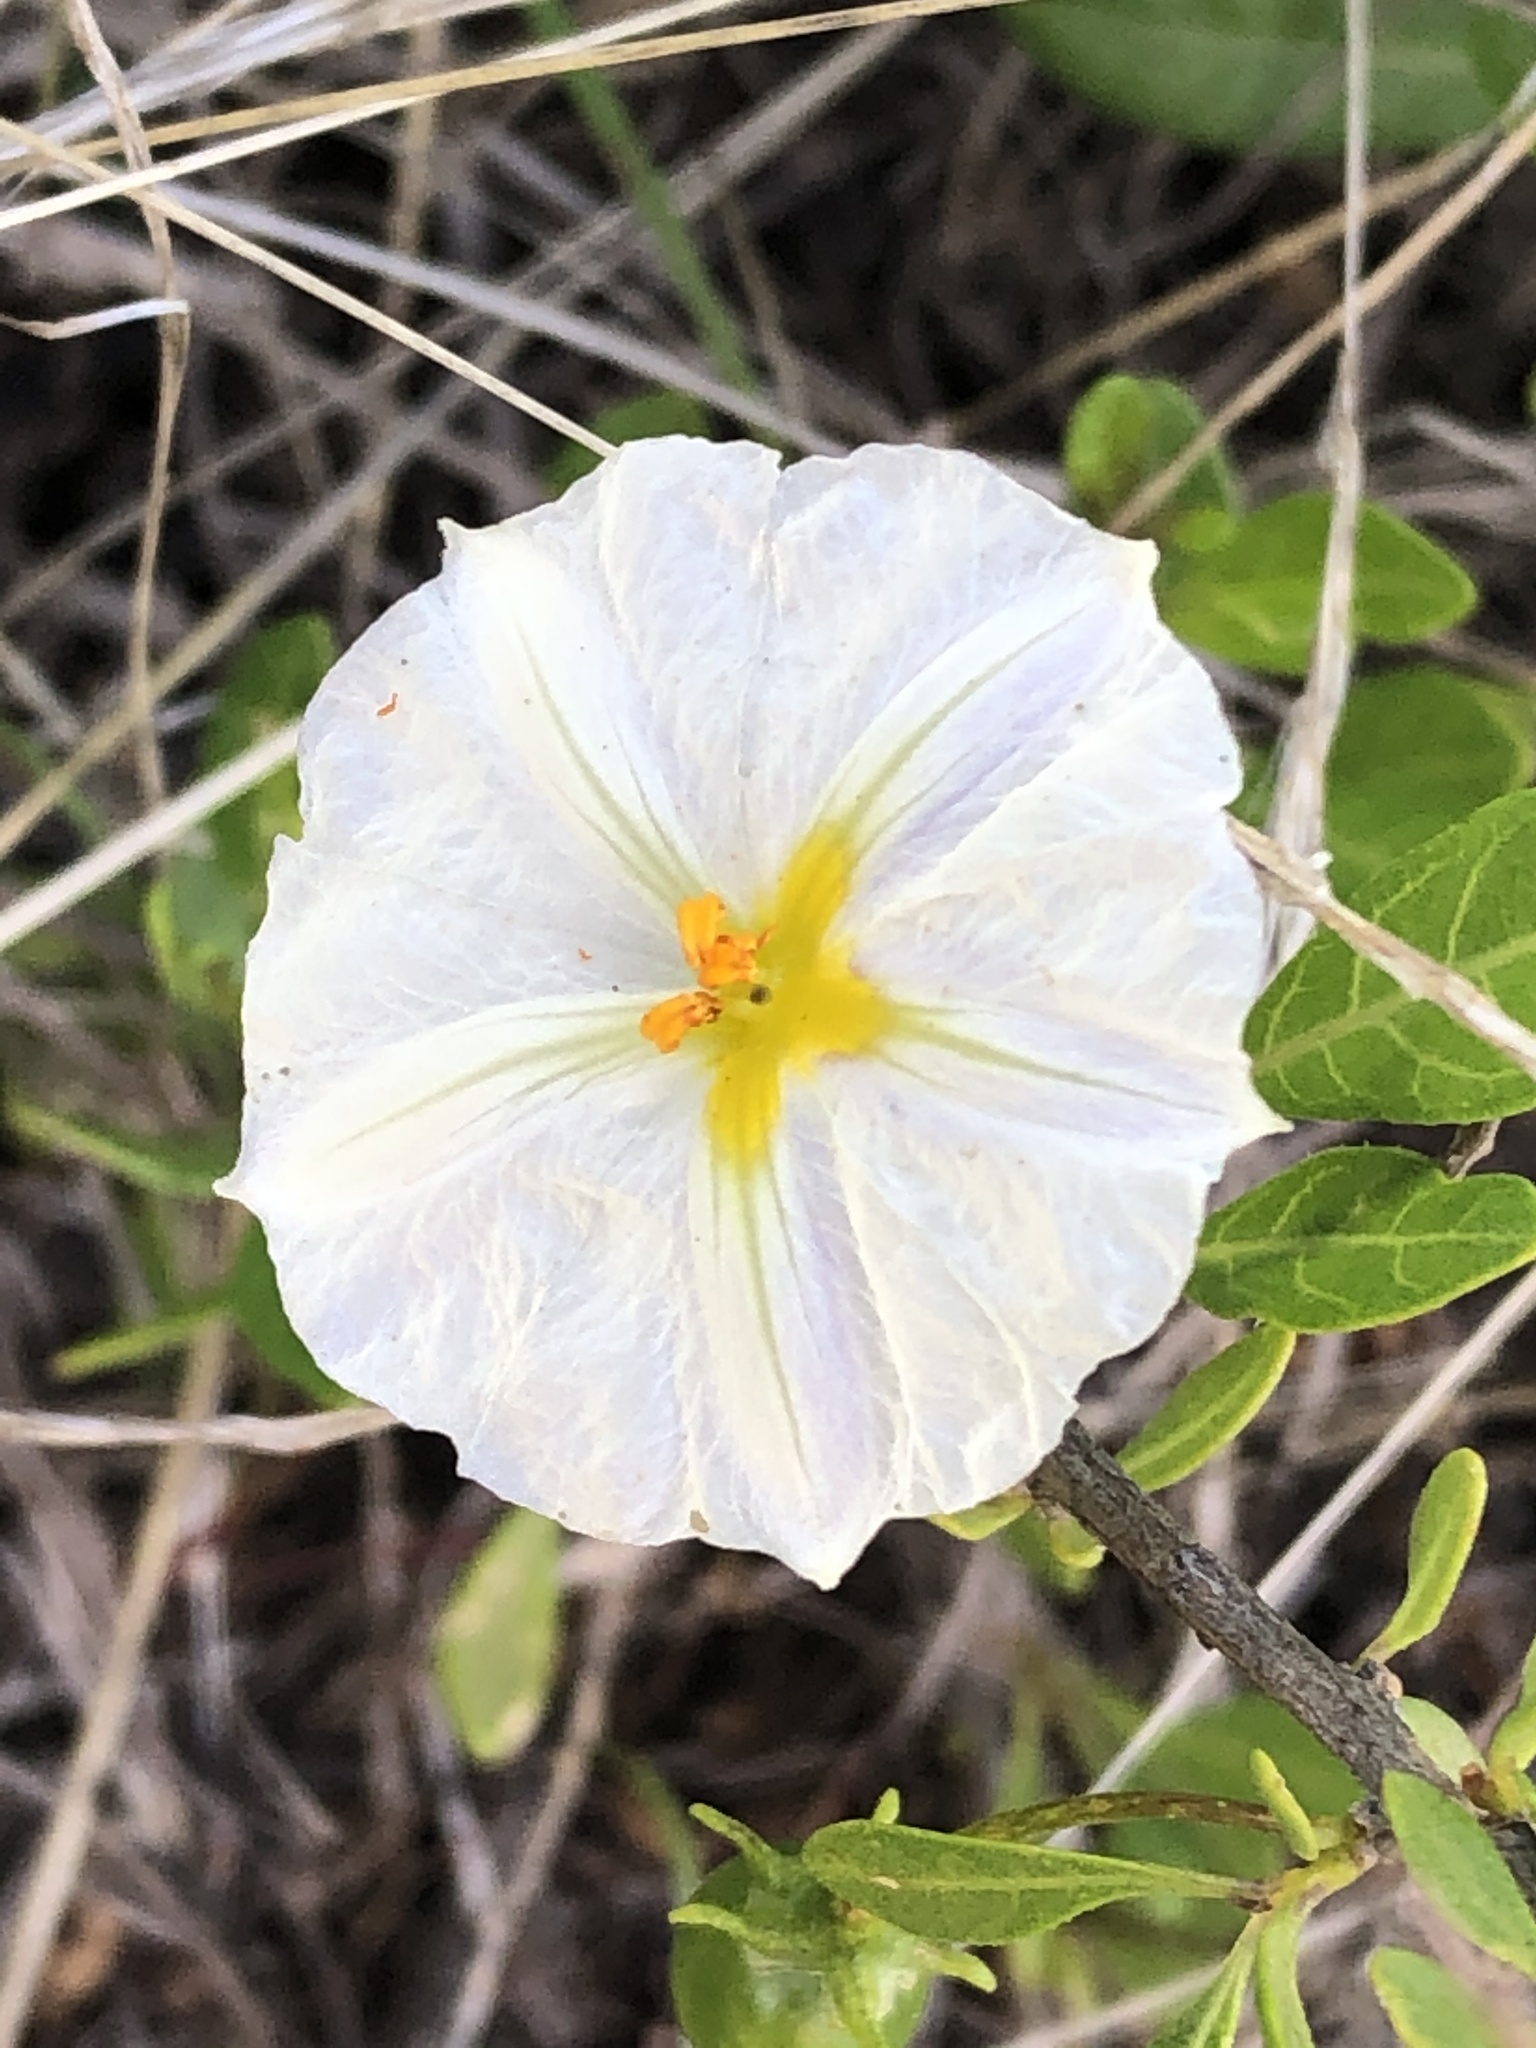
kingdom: Plantae
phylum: Tracheophyta
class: Magnoliopsida
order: Solanales
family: Solanaceae
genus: Lycianthes
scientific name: Lycianthes lycioides
